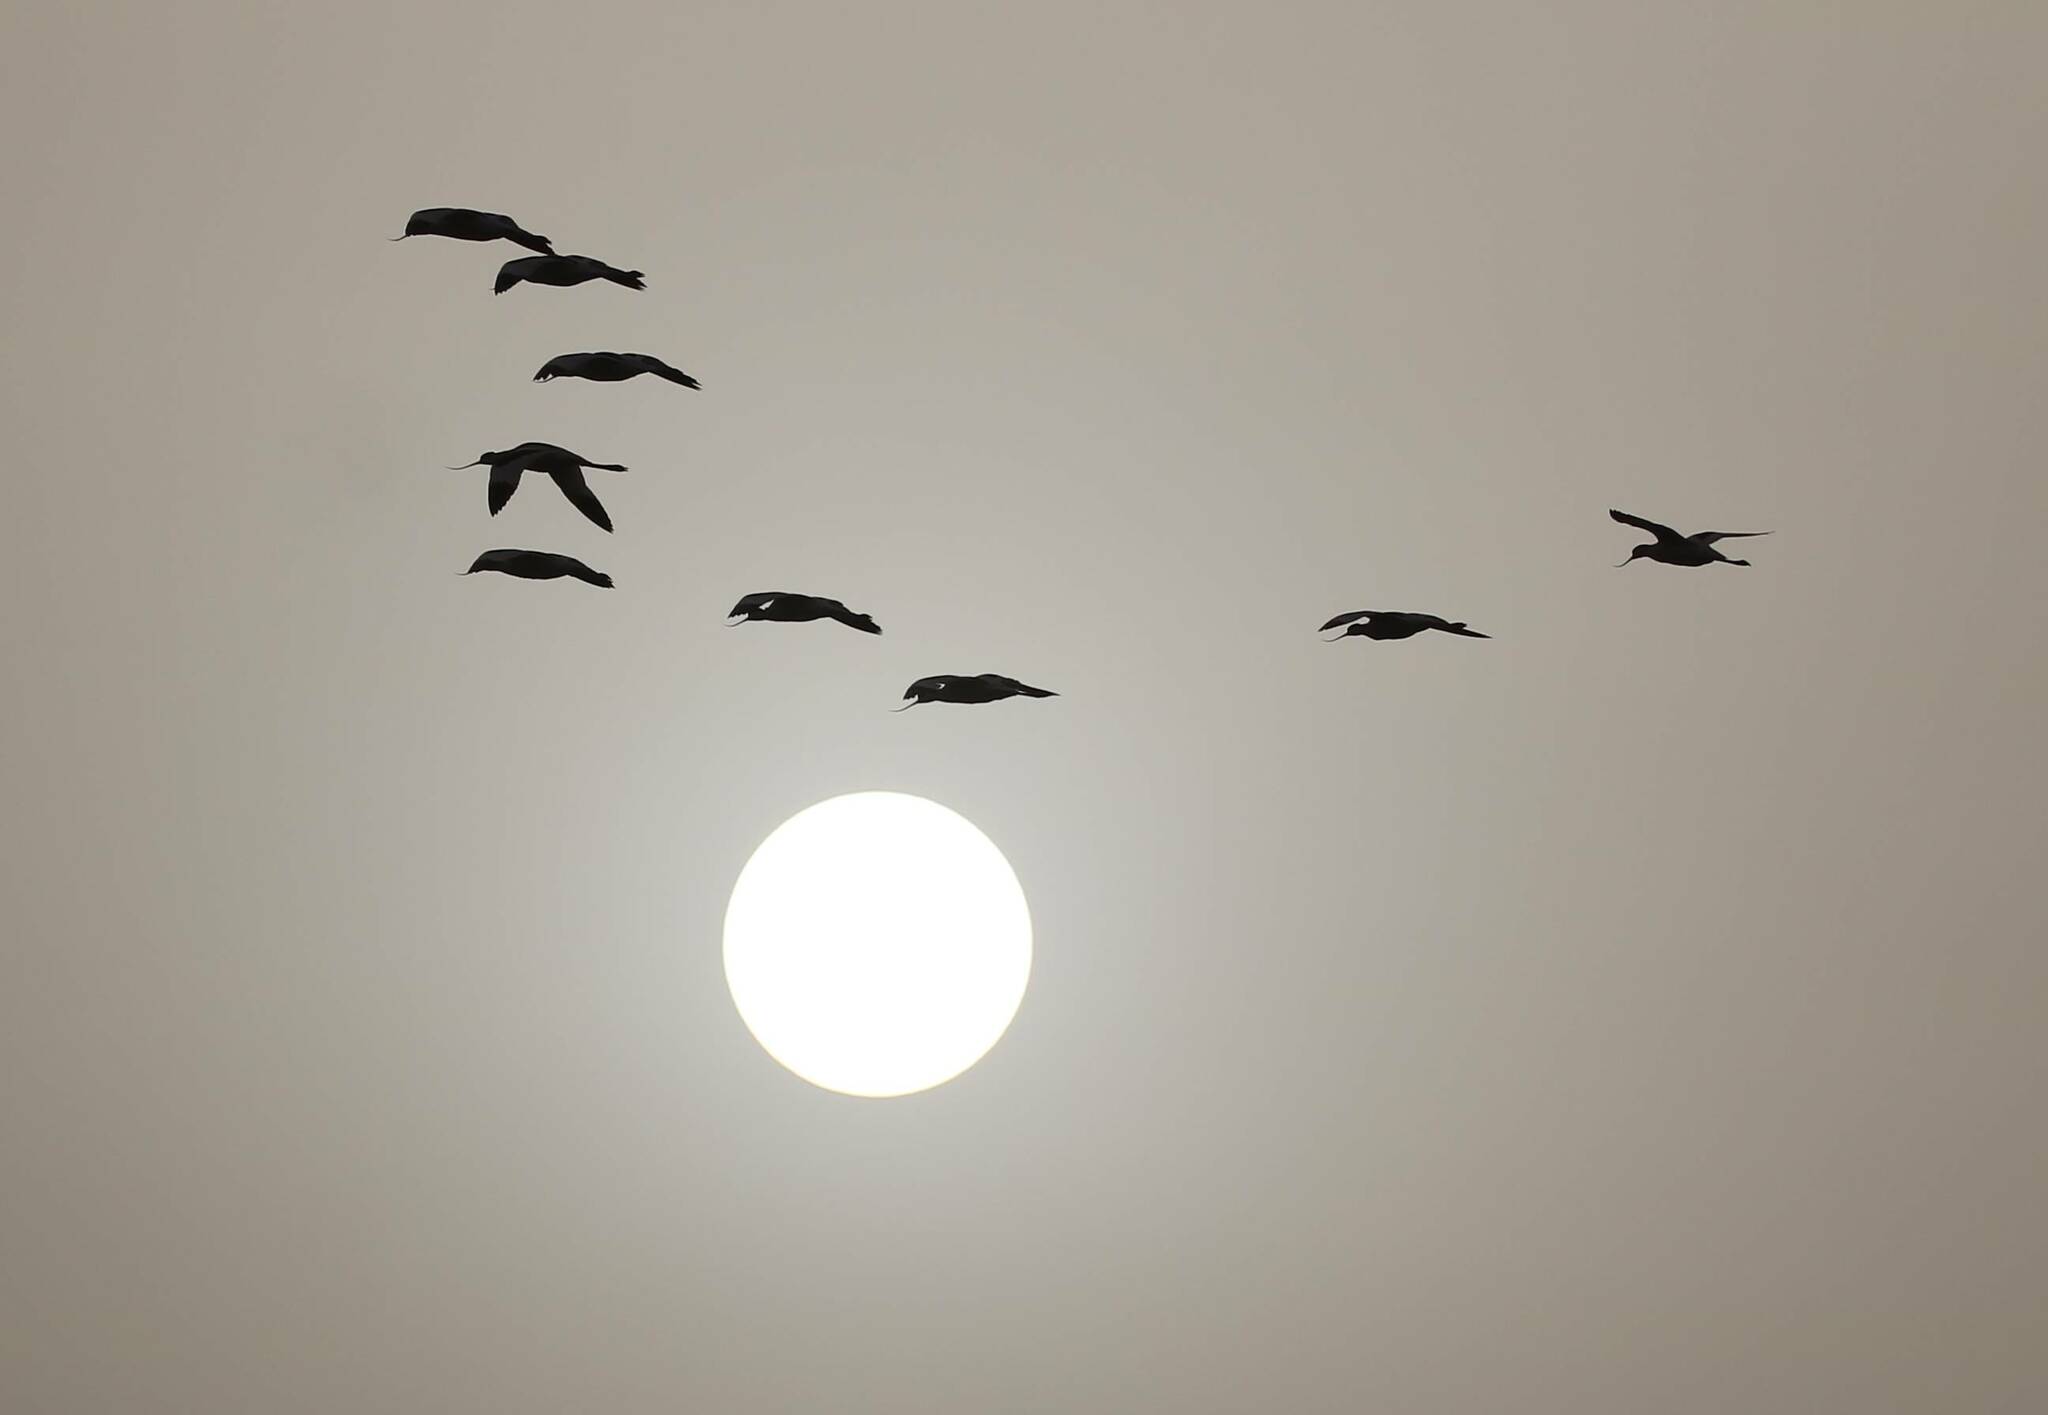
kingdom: Animalia
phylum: Chordata
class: Aves
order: Charadriiformes
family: Recurvirostridae
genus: Recurvirostra
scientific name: Recurvirostra avosetta
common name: Pied avocet
